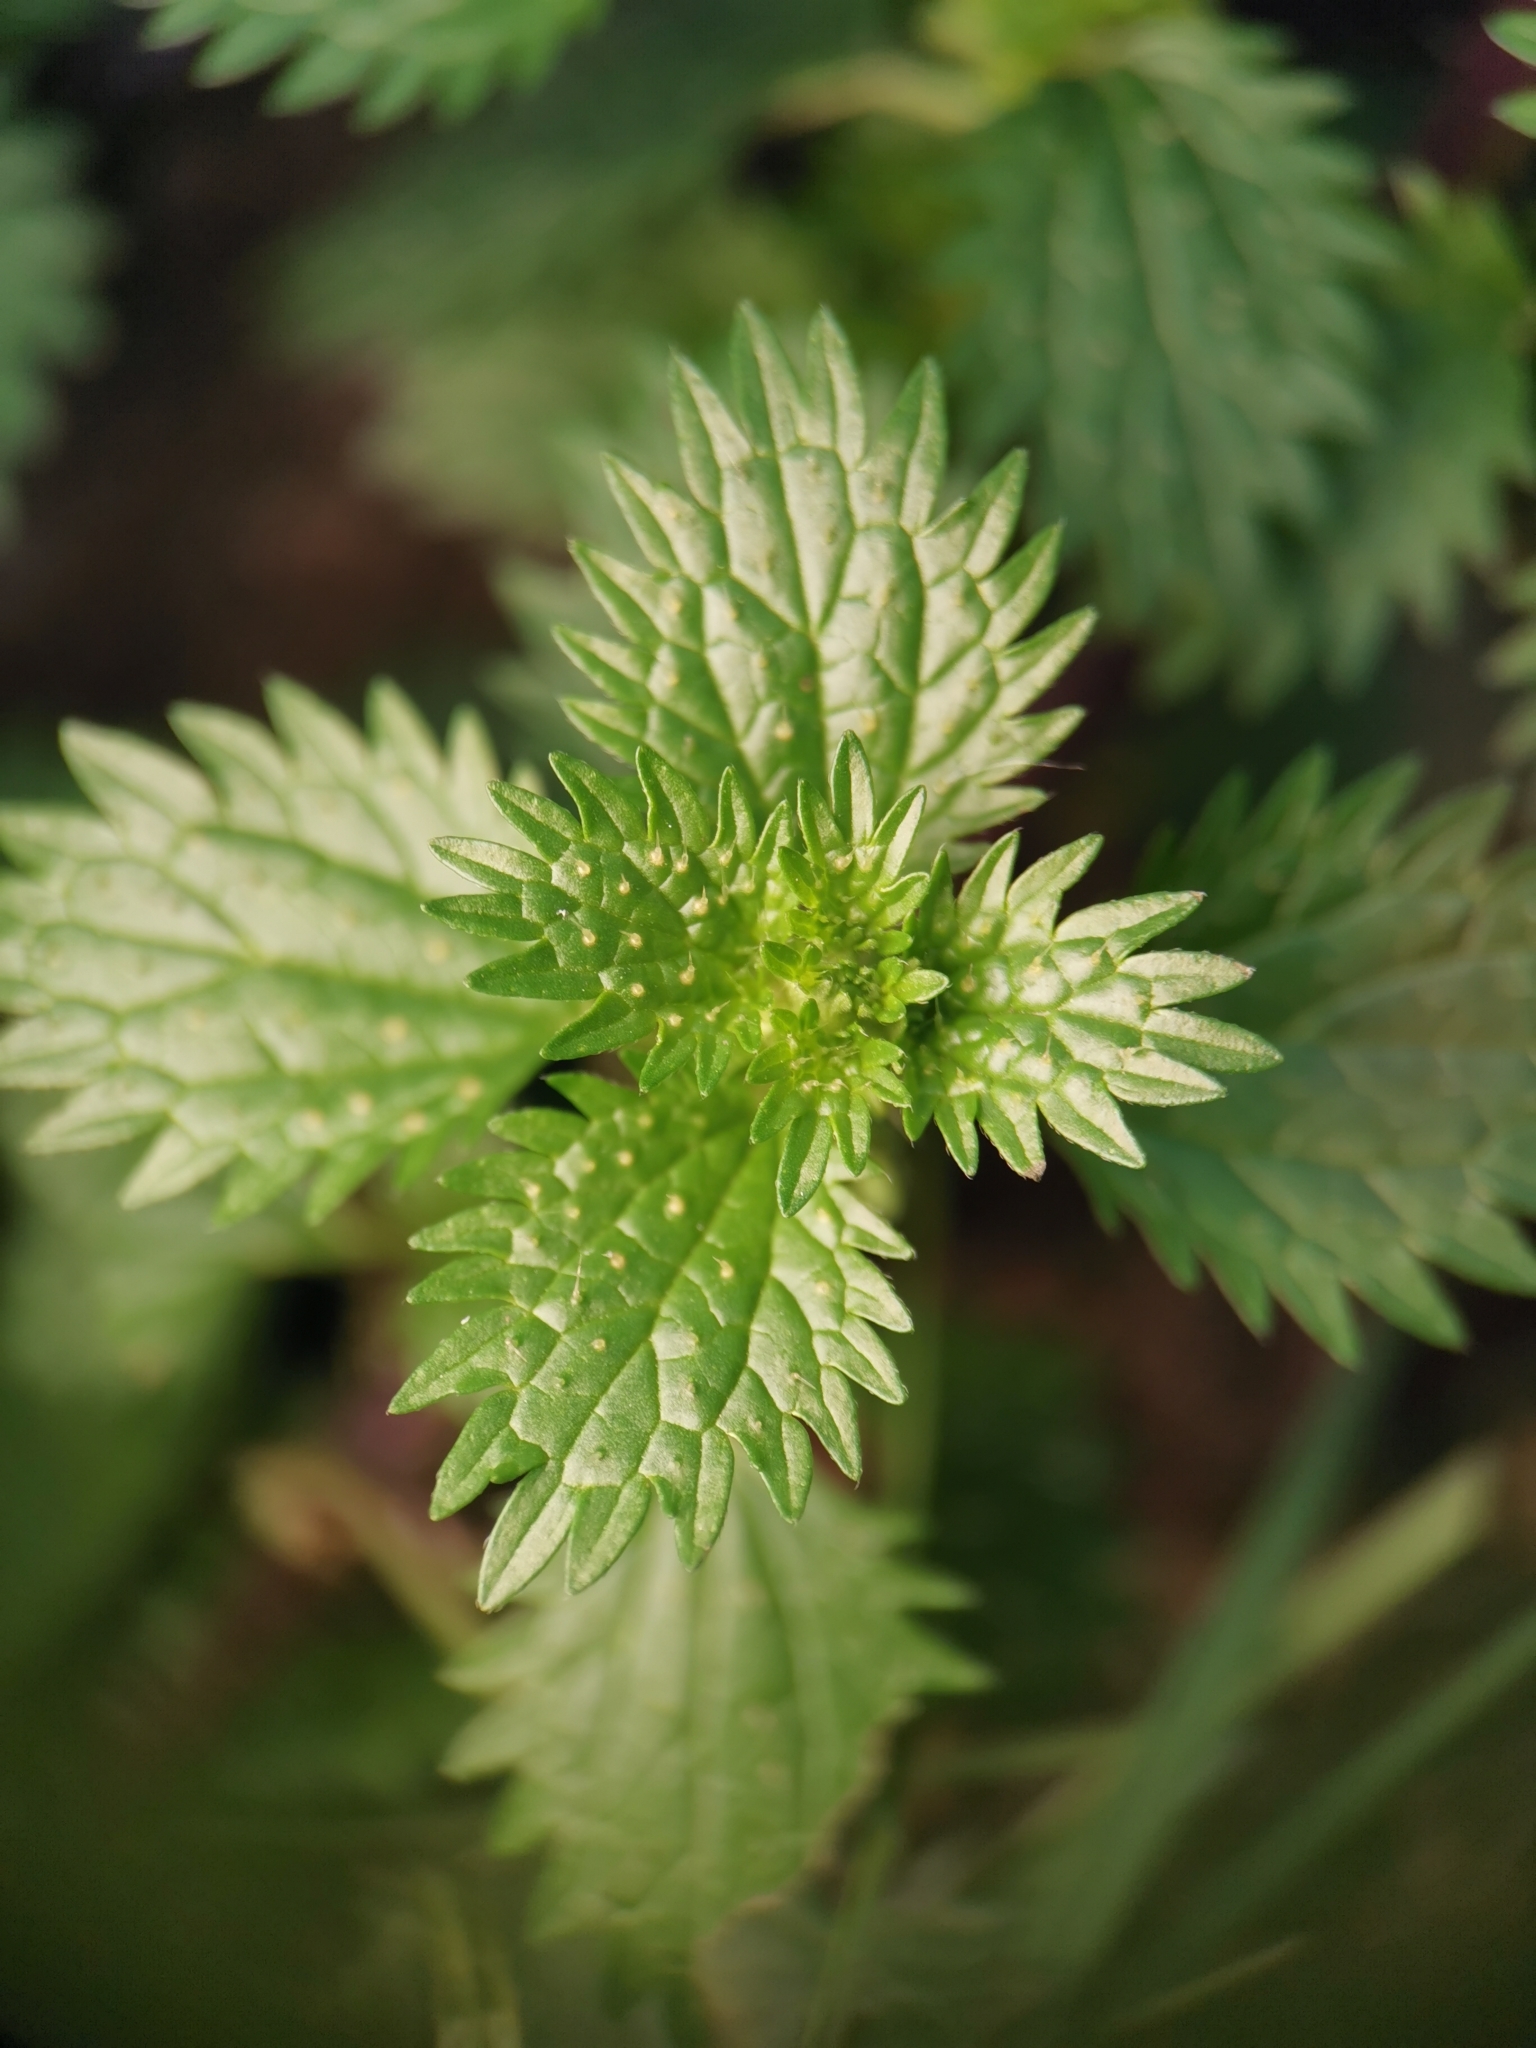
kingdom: Plantae
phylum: Tracheophyta
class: Magnoliopsida
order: Rosales
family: Urticaceae
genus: Urtica
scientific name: Urtica urens
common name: Dwarf nettle
